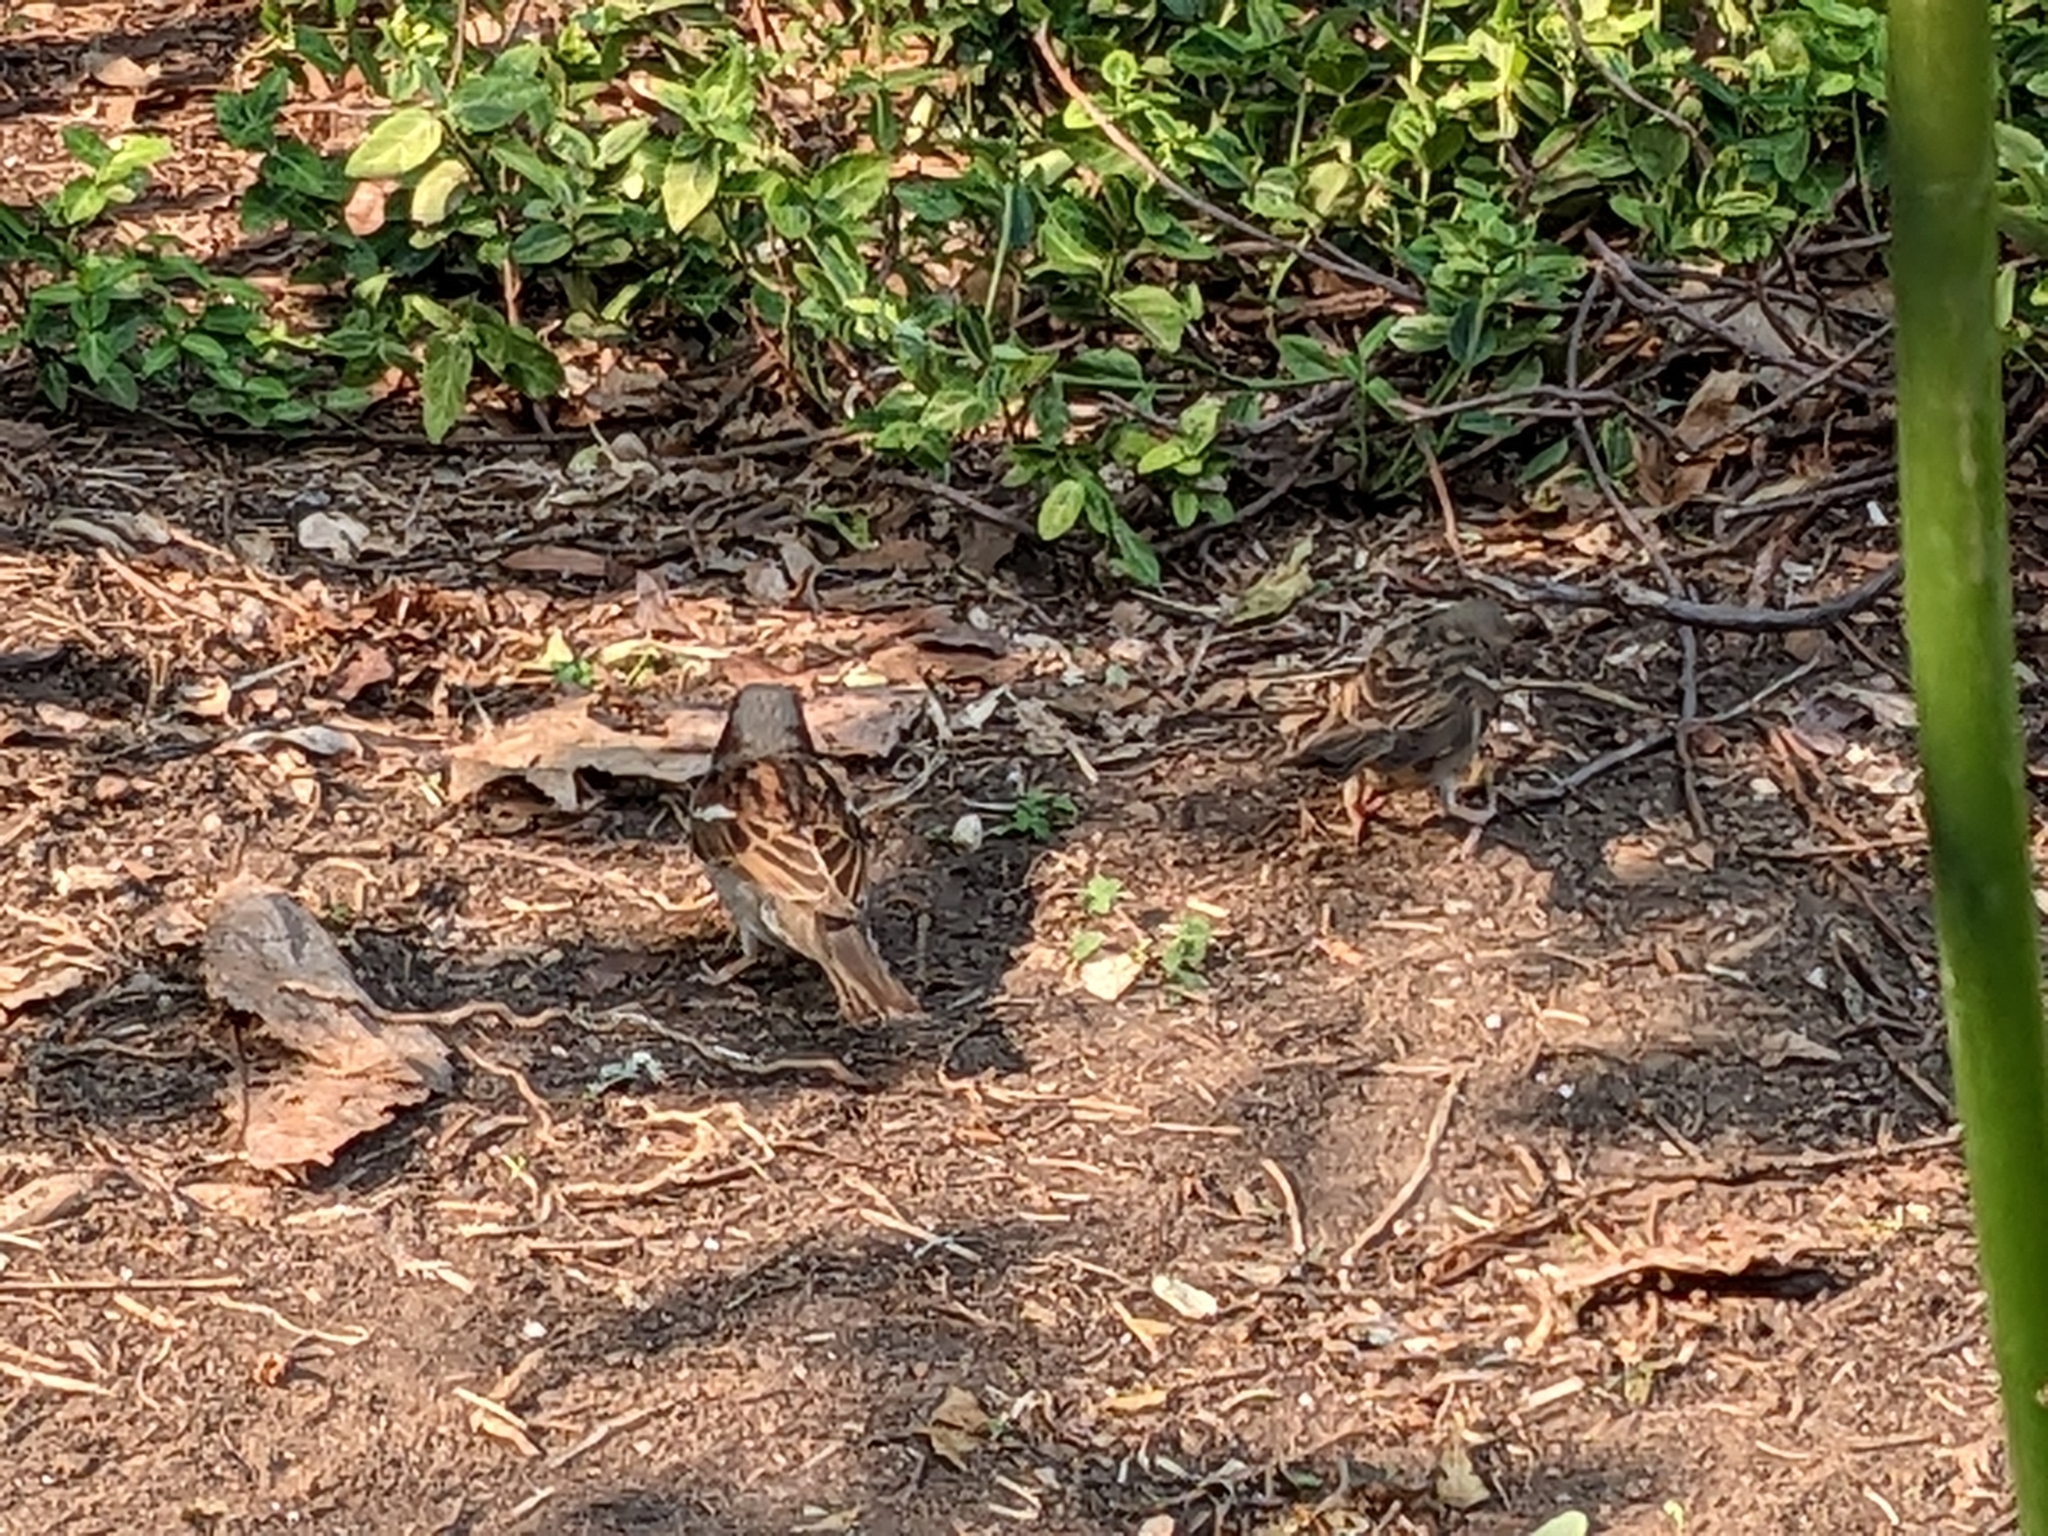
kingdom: Animalia
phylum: Chordata
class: Aves
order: Passeriformes
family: Passeridae
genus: Passer
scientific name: Passer domesticus
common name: House sparrow
